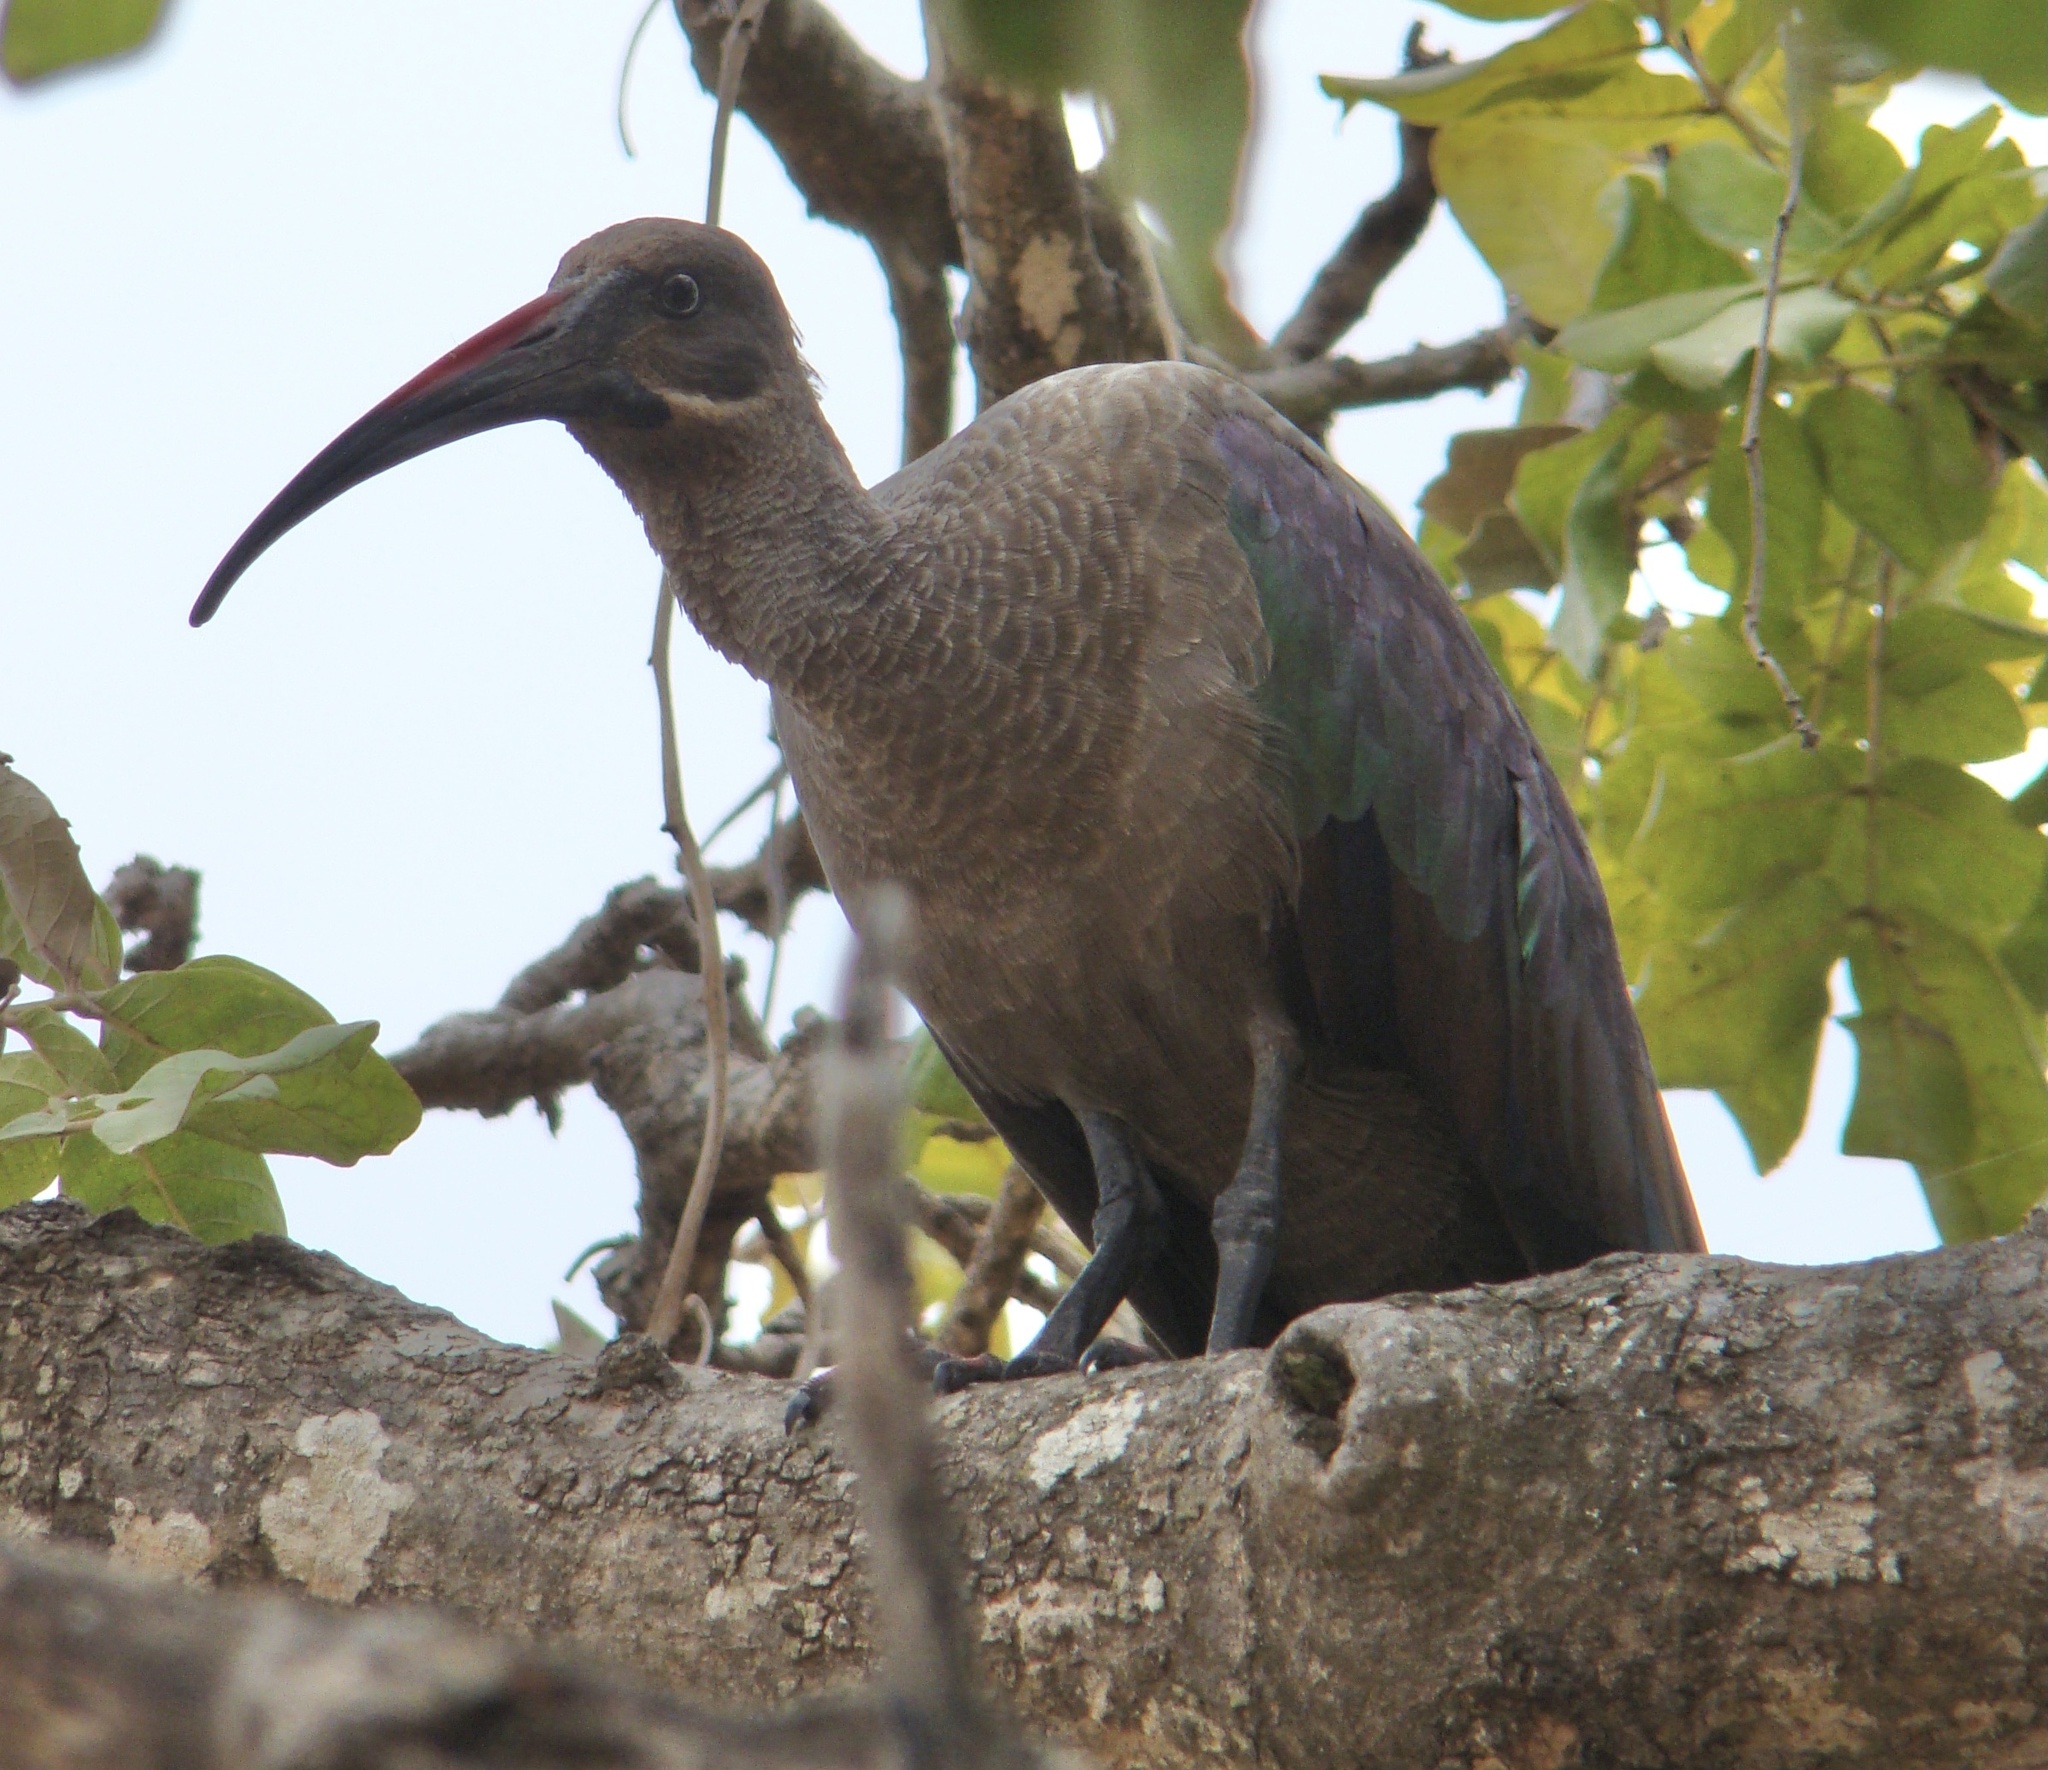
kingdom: Animalia
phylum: Chordata
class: Aves
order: Pelecaniformes
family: Threskiornithidae
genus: Bostrychia
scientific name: Bostrychia hagedash
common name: Hadada ibis
